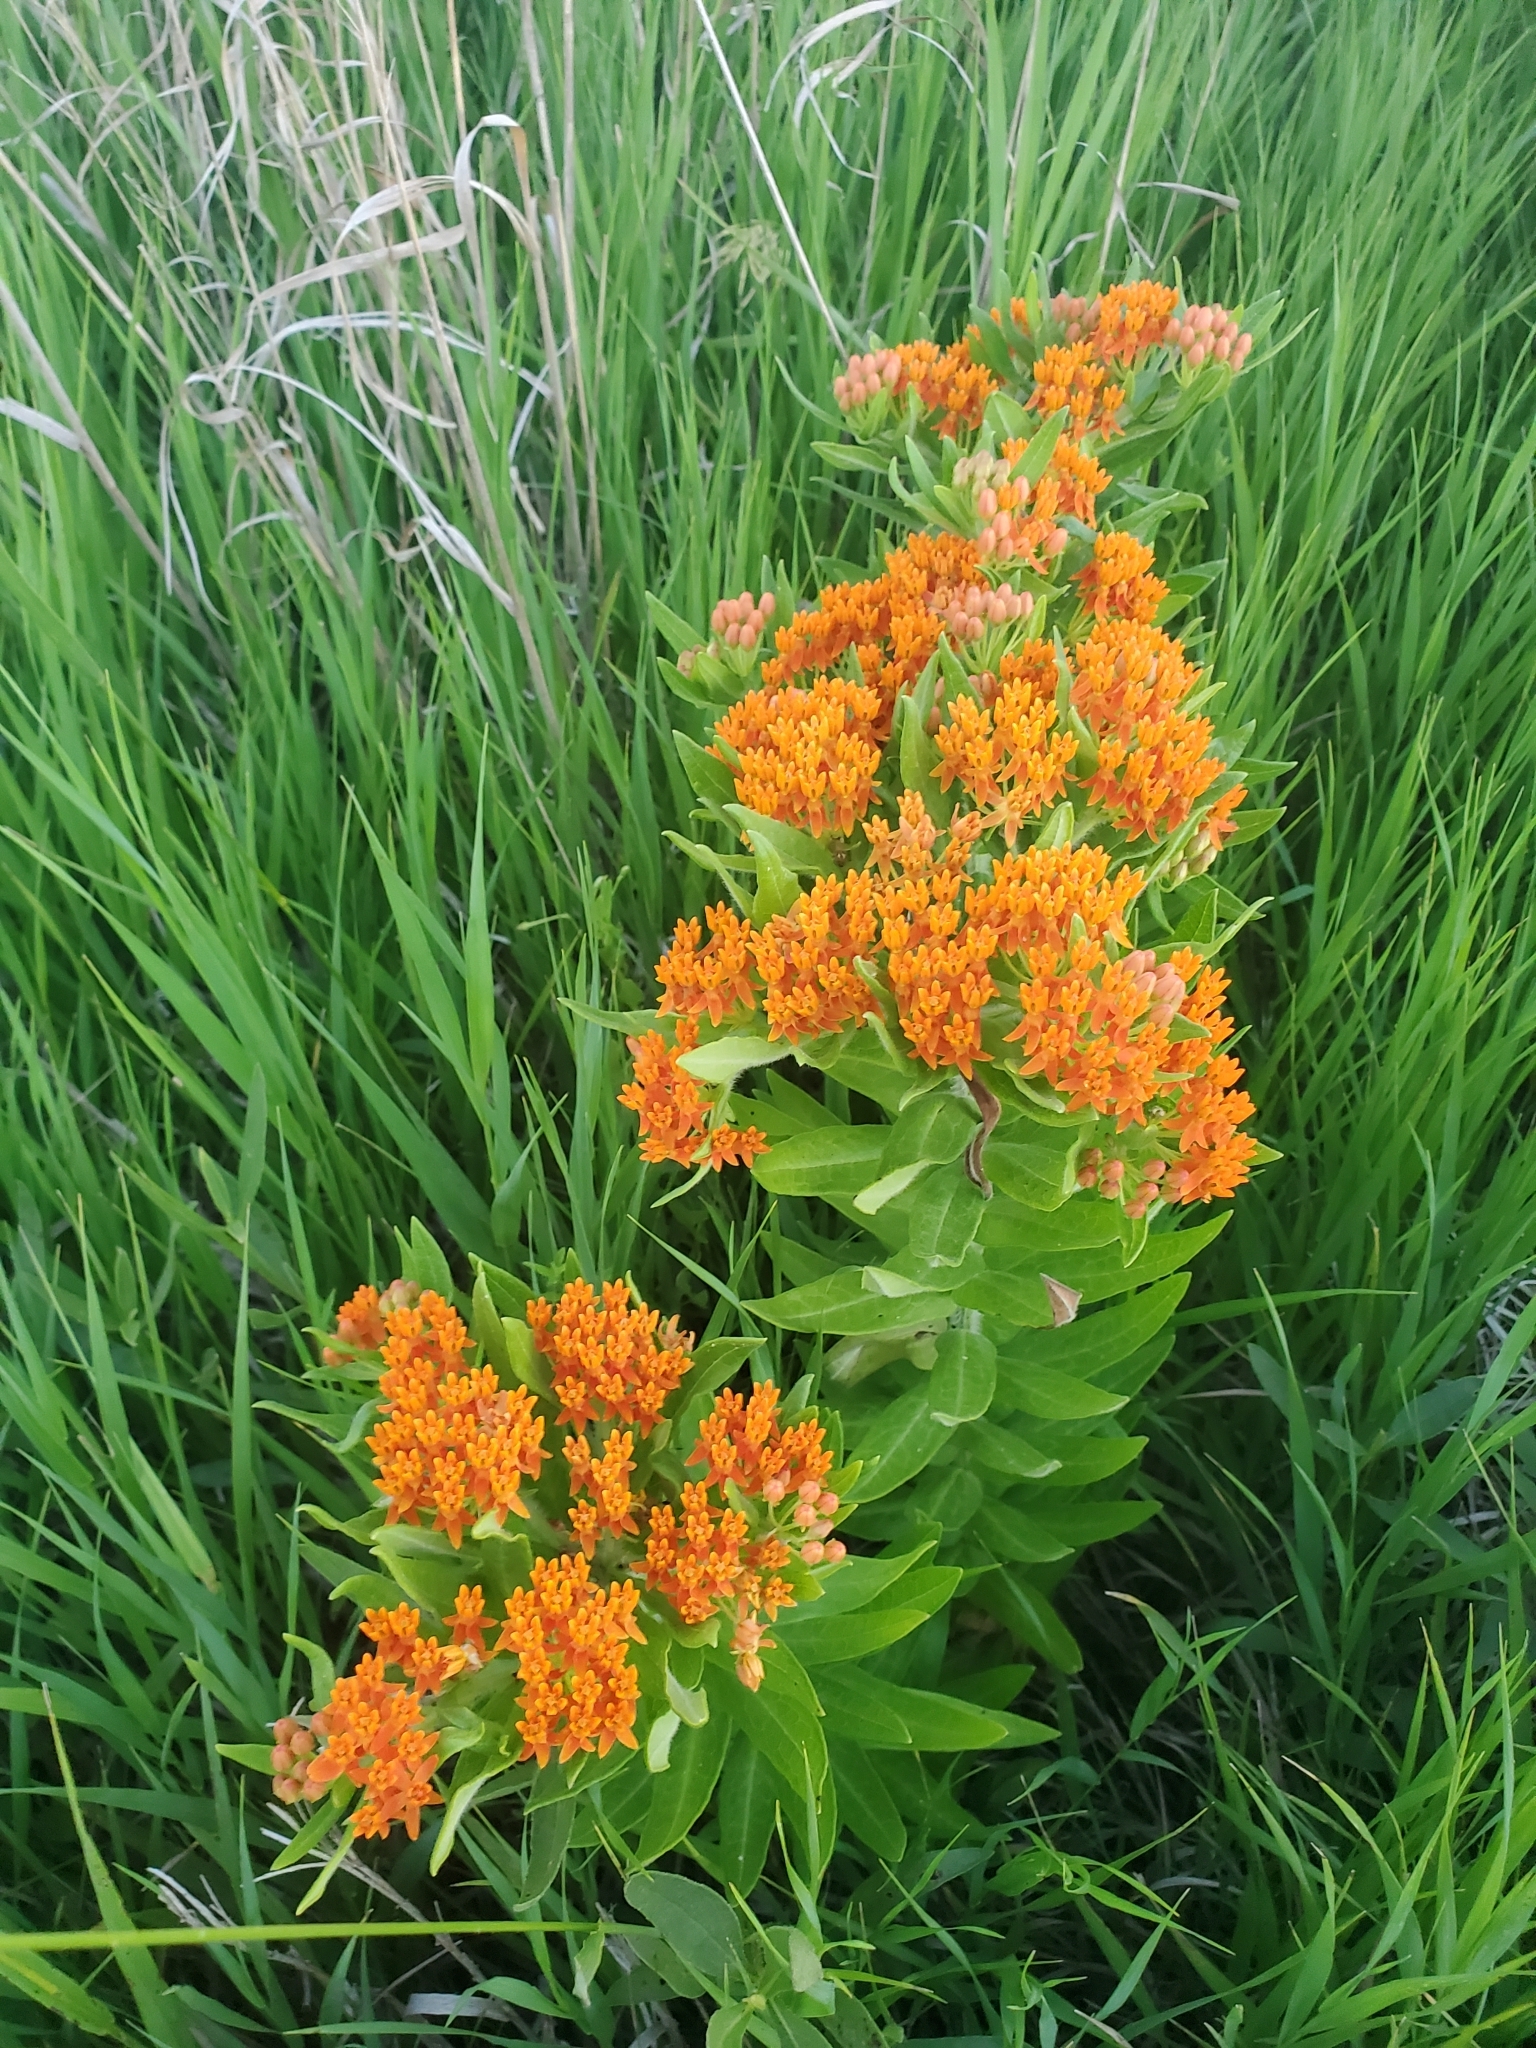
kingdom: Plantae
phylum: Tracheophyta
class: Magnoliopsida
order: Gentianales
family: Apocynaceae
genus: Asclepias
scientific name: Asclepias tuberosa
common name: Butterfly milkweed
